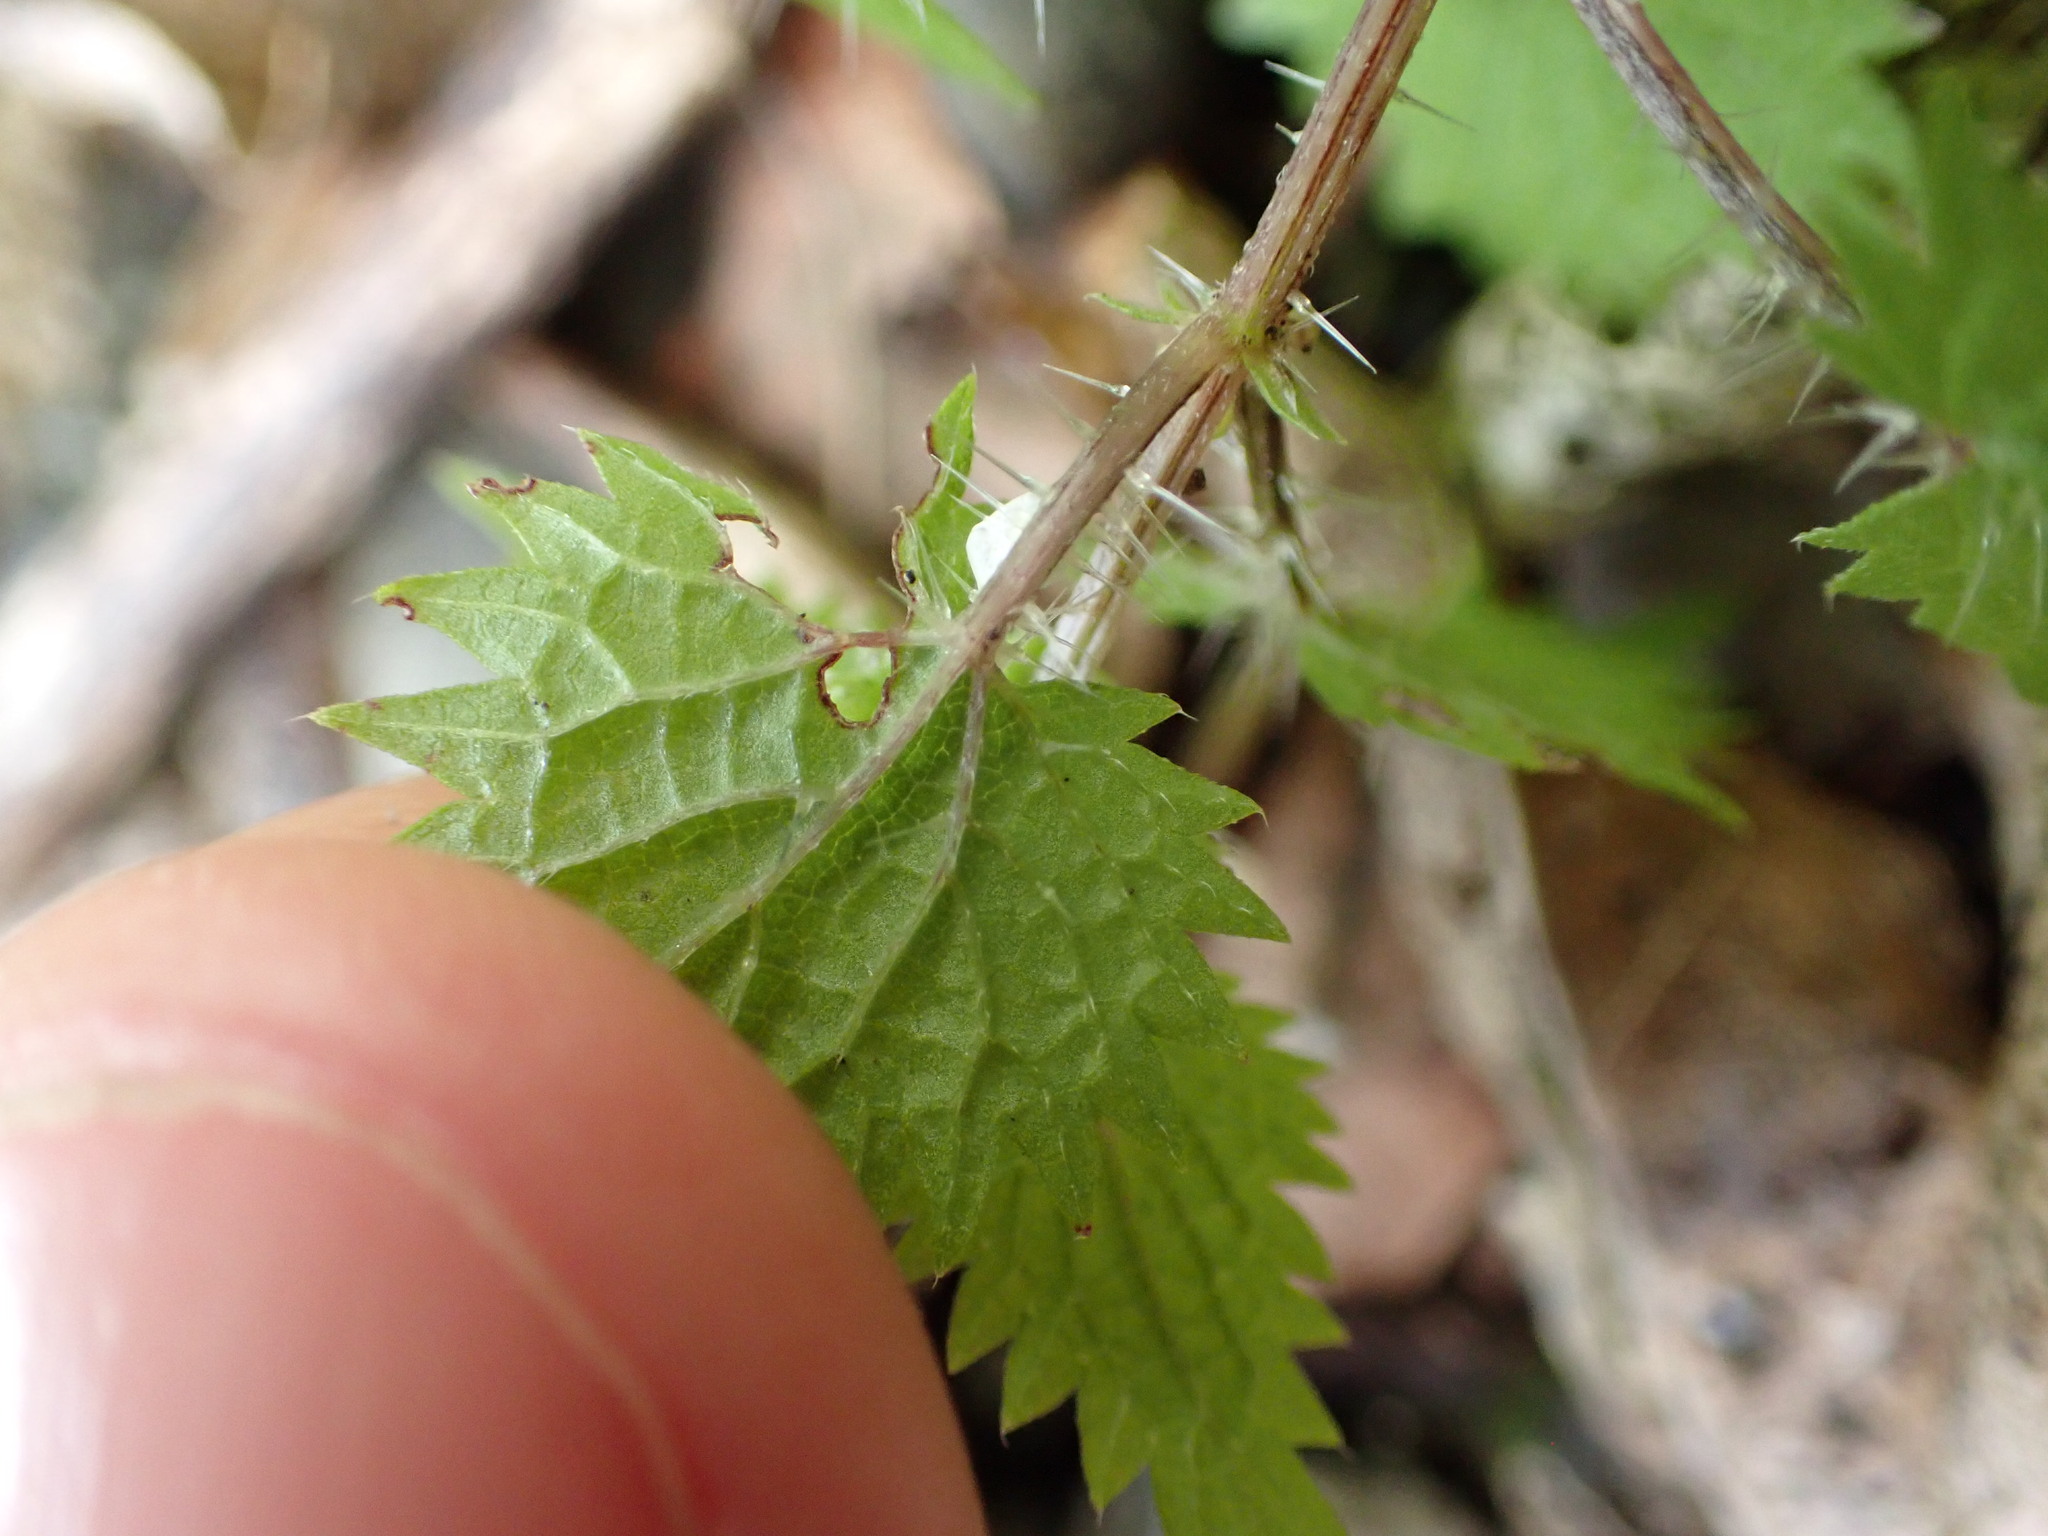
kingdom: Plantae
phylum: Tracheophyta
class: Magnoliopsida
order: Rosales
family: Urticaceae
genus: Urtica
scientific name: Urtica sykesii
